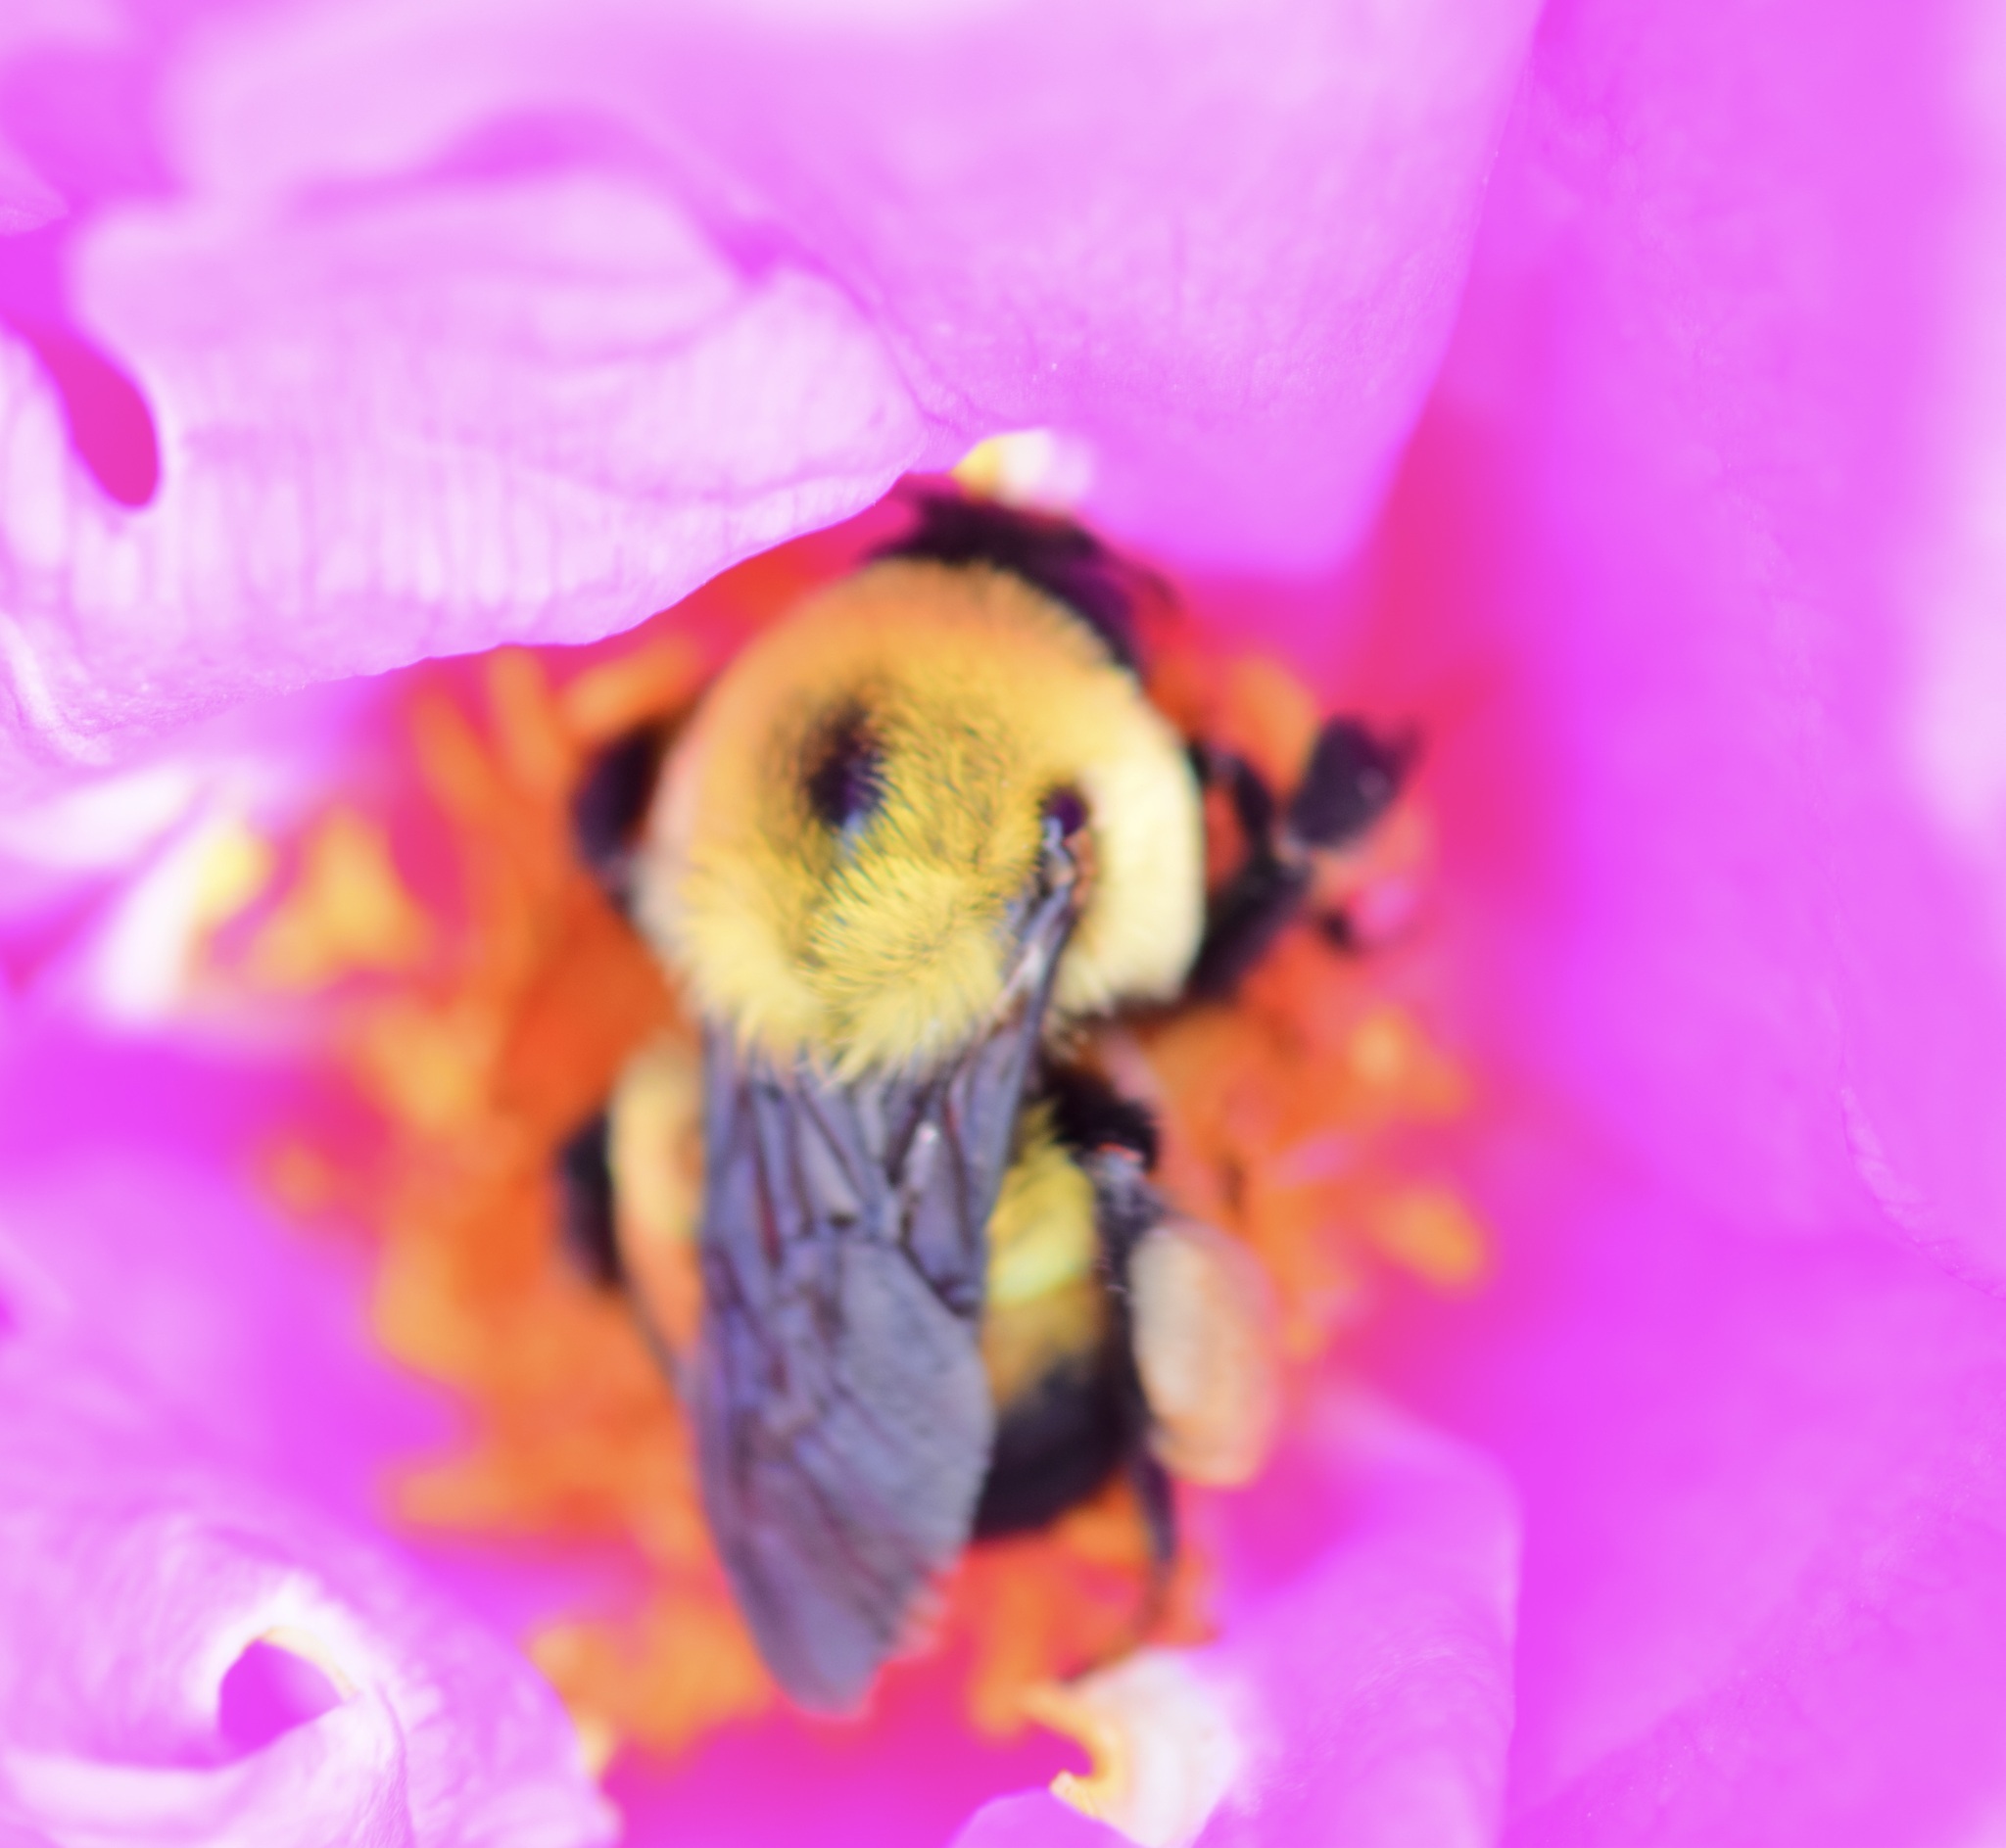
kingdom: Animalia
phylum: Arthropoda
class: Insecta
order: Hymenoptera
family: Apidae
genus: Bombus
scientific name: Bombus griseocollis
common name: Brown-belted bumble bee
